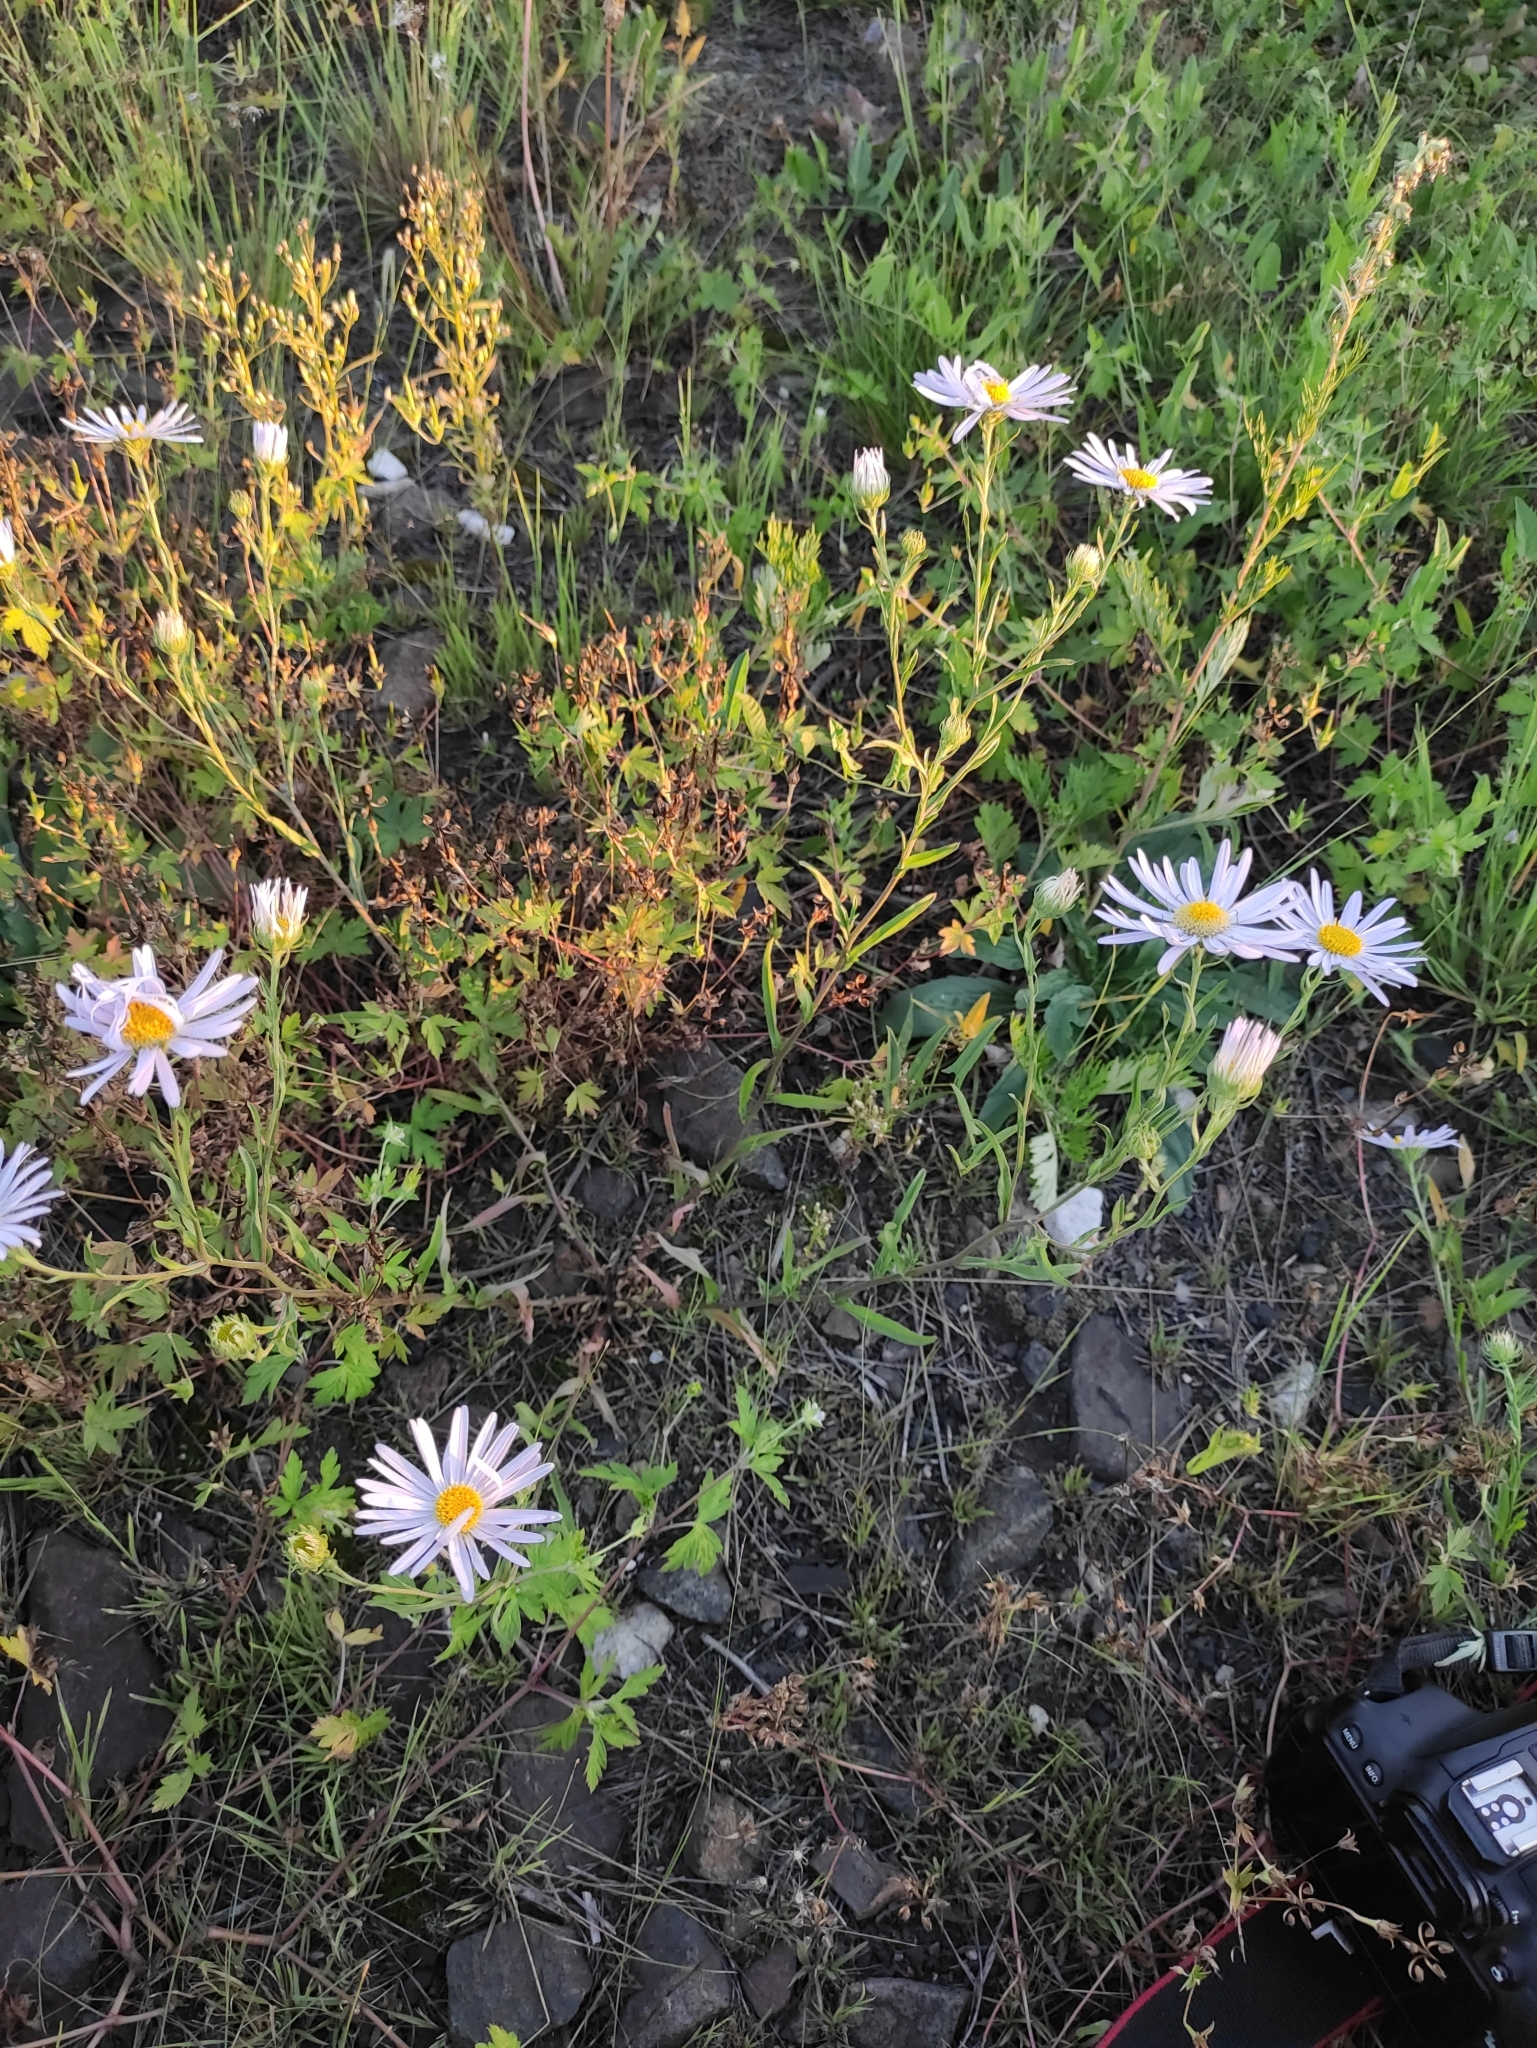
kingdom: Plantae
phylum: Tracheophyta
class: Magnoliopsida
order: Asterales
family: Asteraceae
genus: Aster
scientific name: Aster biennis
